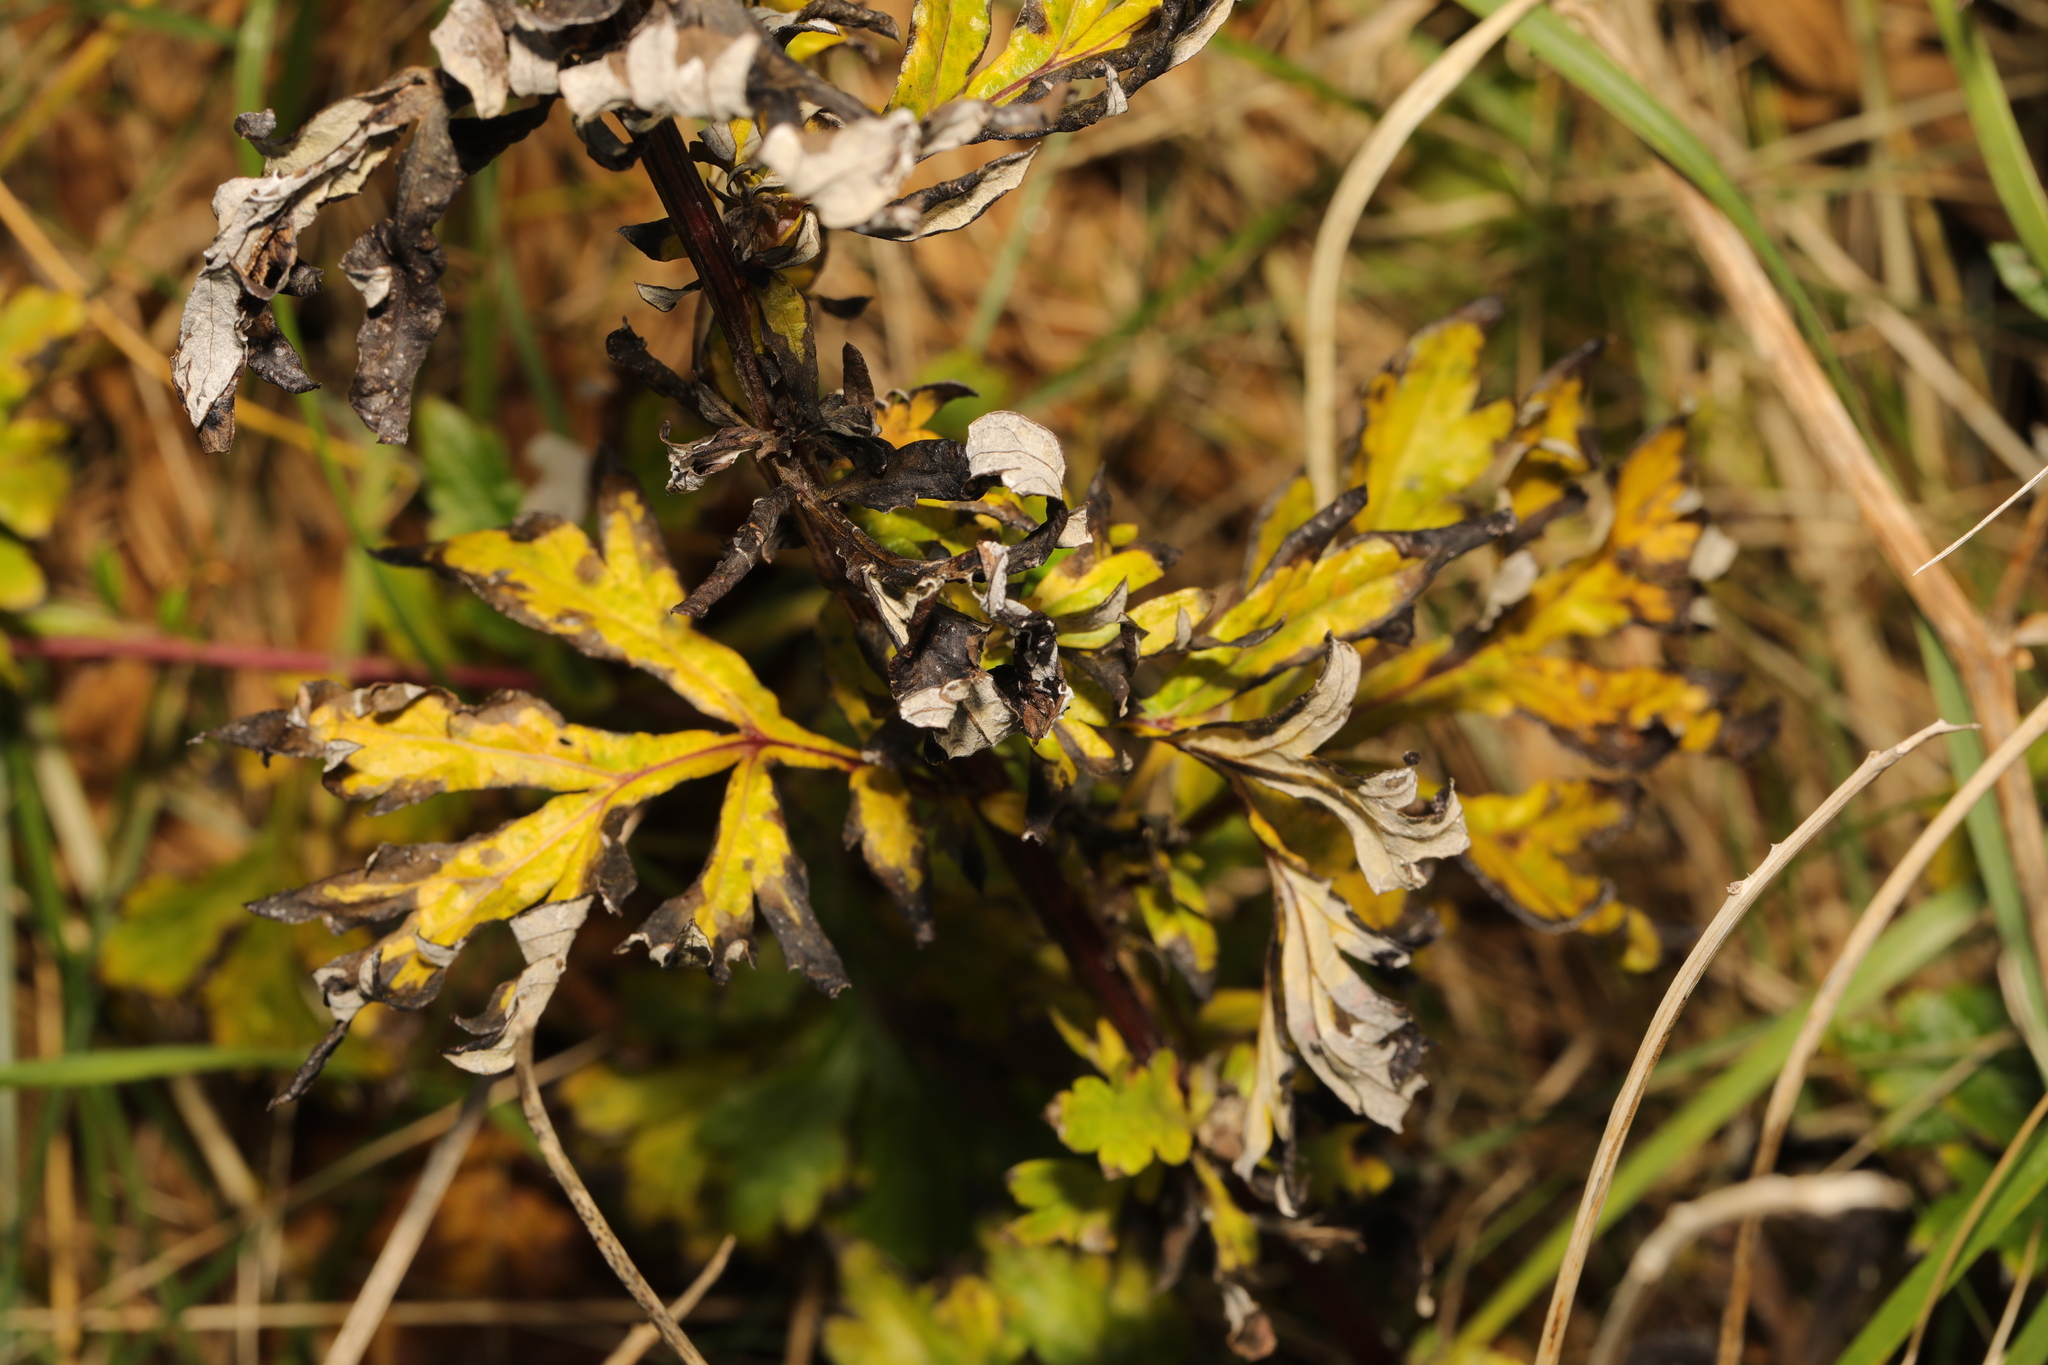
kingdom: Plantae
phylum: Tracheophyta
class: Magnoliopsida
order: Asterales
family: Asteraceae
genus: Artemisia
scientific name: Artemisia vulgaris
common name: Mugwort
